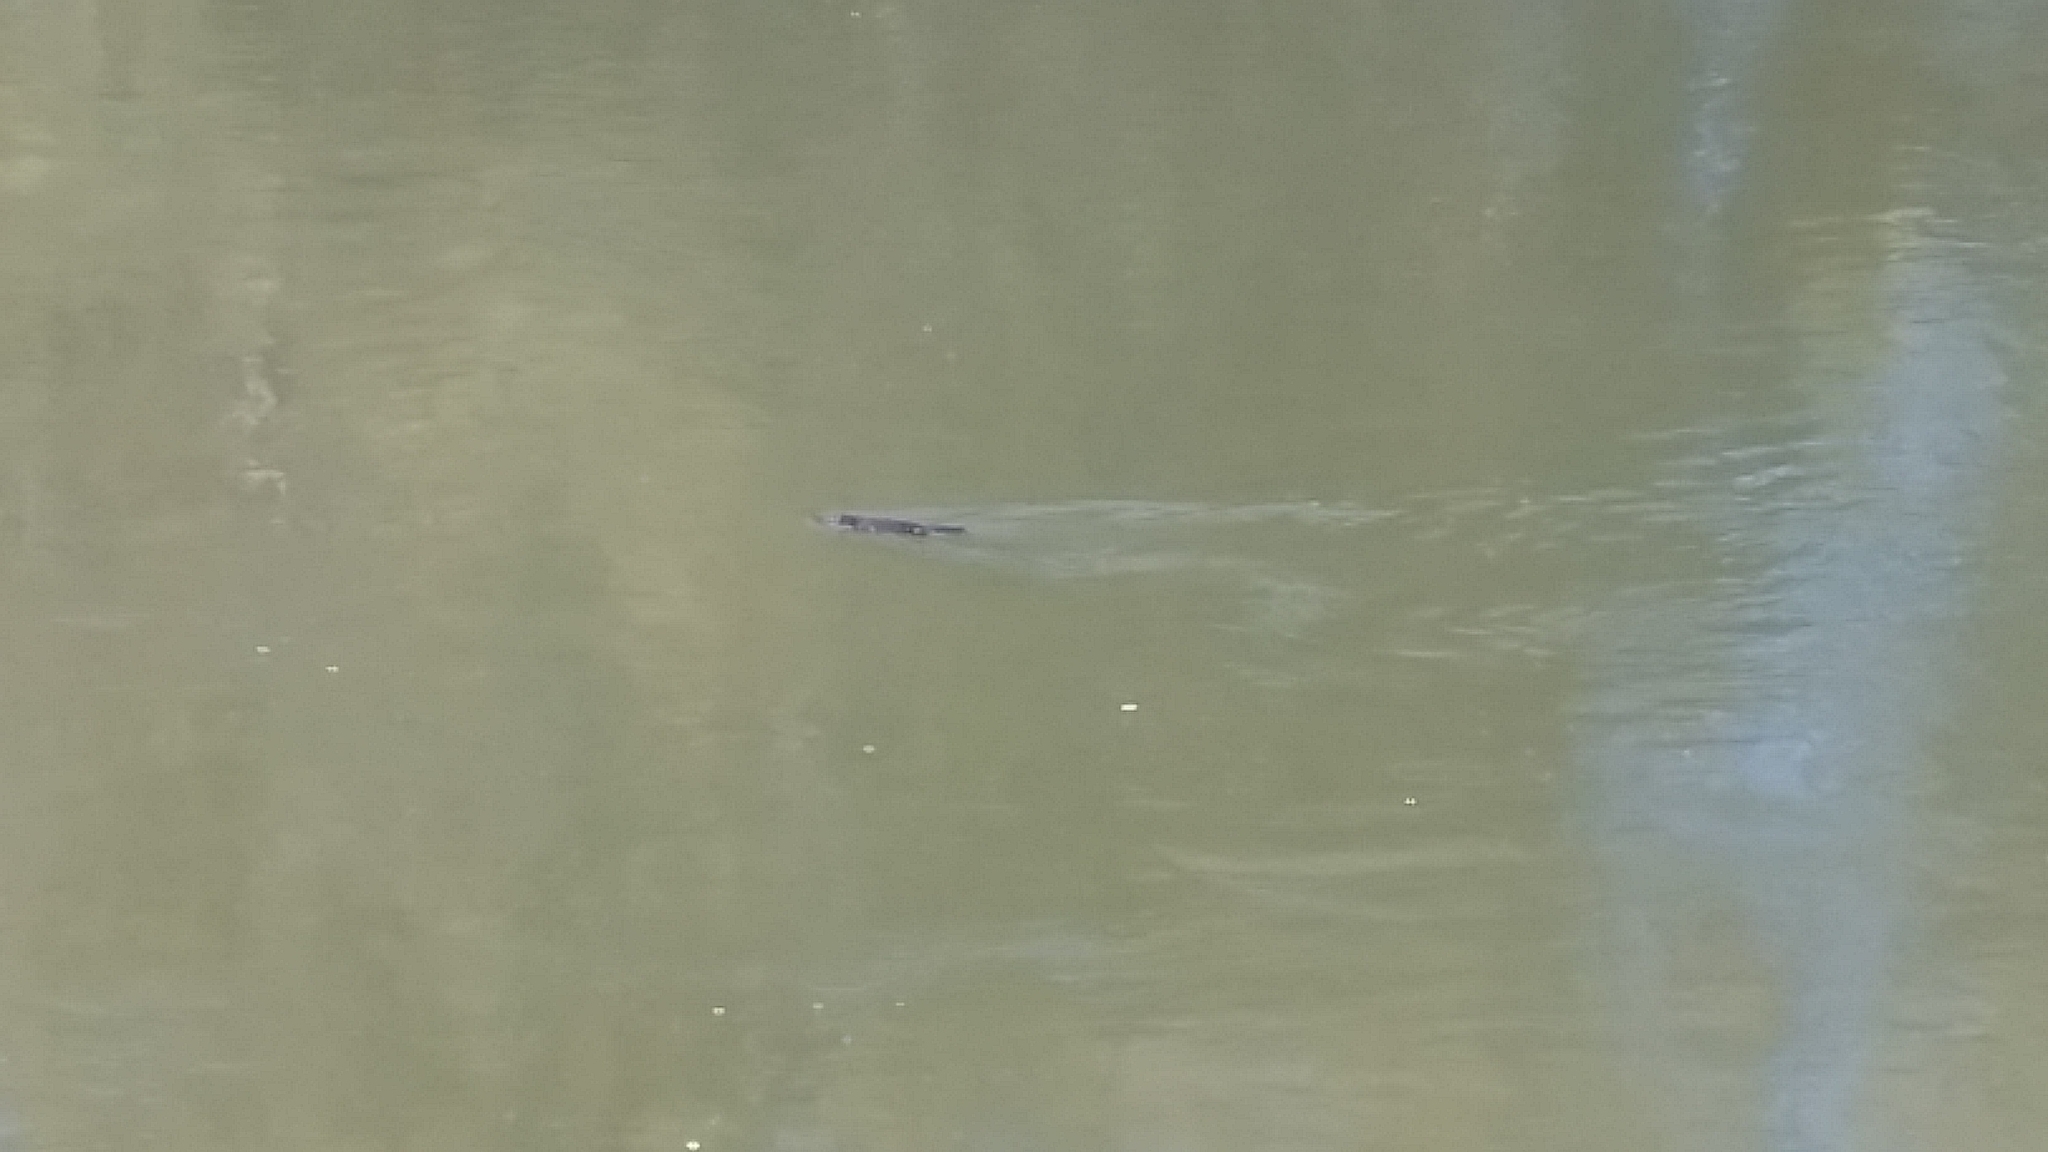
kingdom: Animalia
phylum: Chordata
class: Mammalia
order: Monotremata
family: Ornithorhynchidae
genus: Ornithorhynchus
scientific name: Ornithorhynchus anatinus
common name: Platypus
